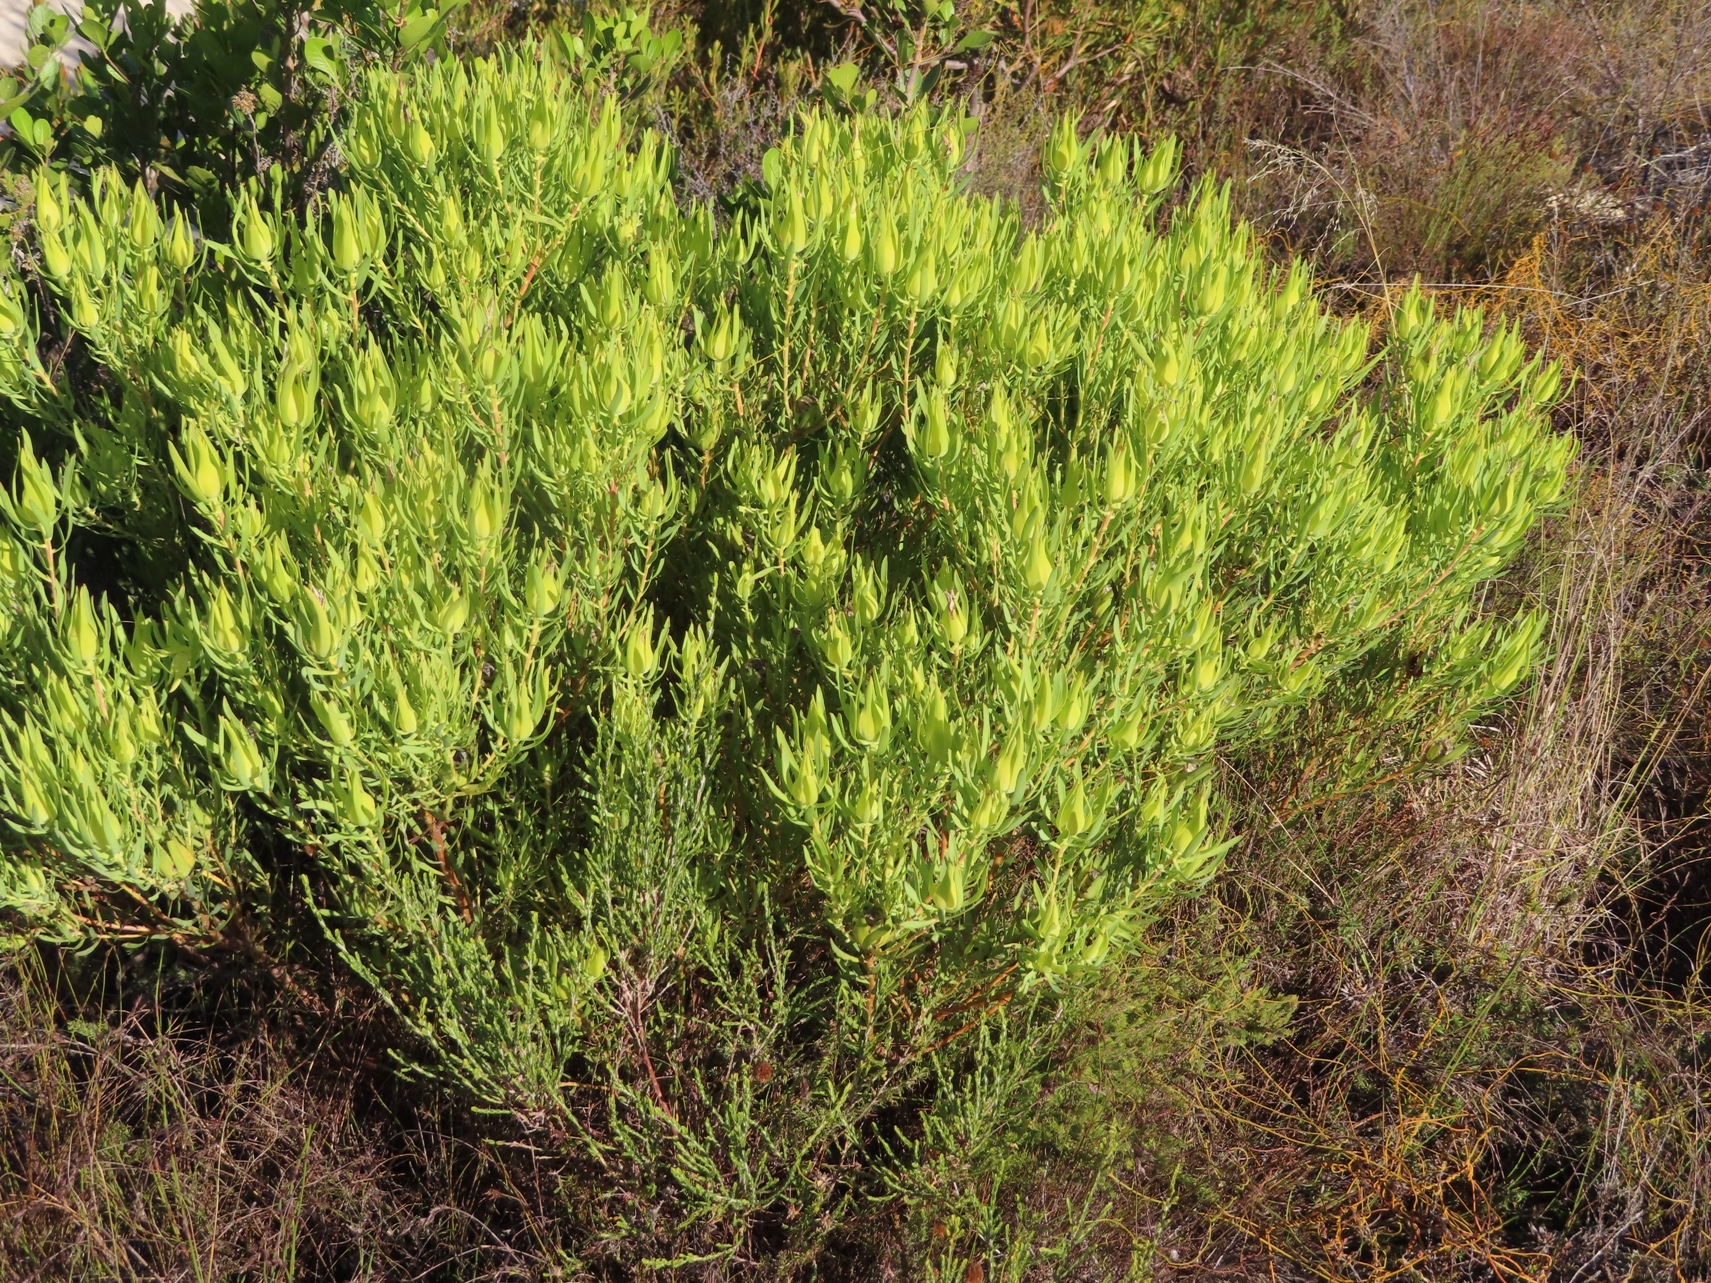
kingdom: Plantae
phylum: Tracheophyta
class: Magnoliopsida
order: Proteales
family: Proteaceae
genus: Leucadendron
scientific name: Leucadendron salignum
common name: Common sunshine conebush
